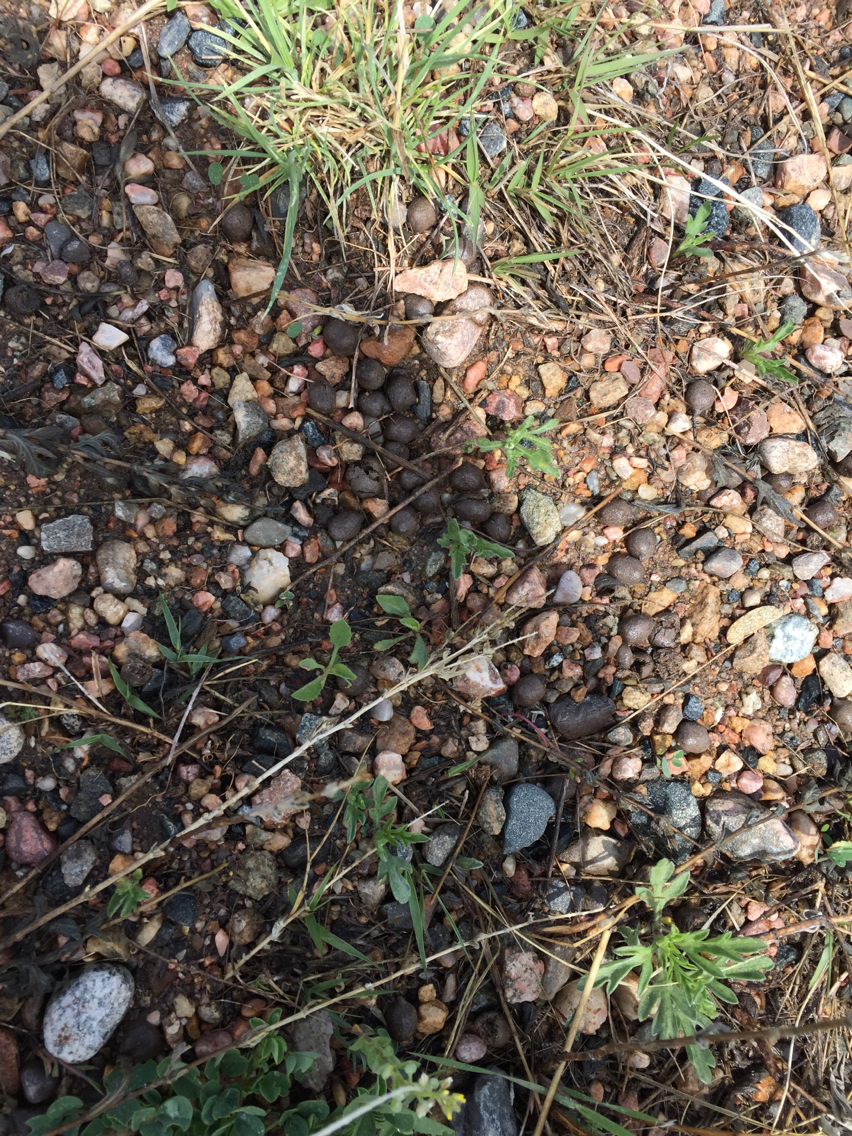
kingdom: Animalia
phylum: Chordata
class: Mammalia
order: Artiodactyla
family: Cervidae
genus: Odocoileus
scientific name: Odocoileus hemionus
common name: Mule deer
